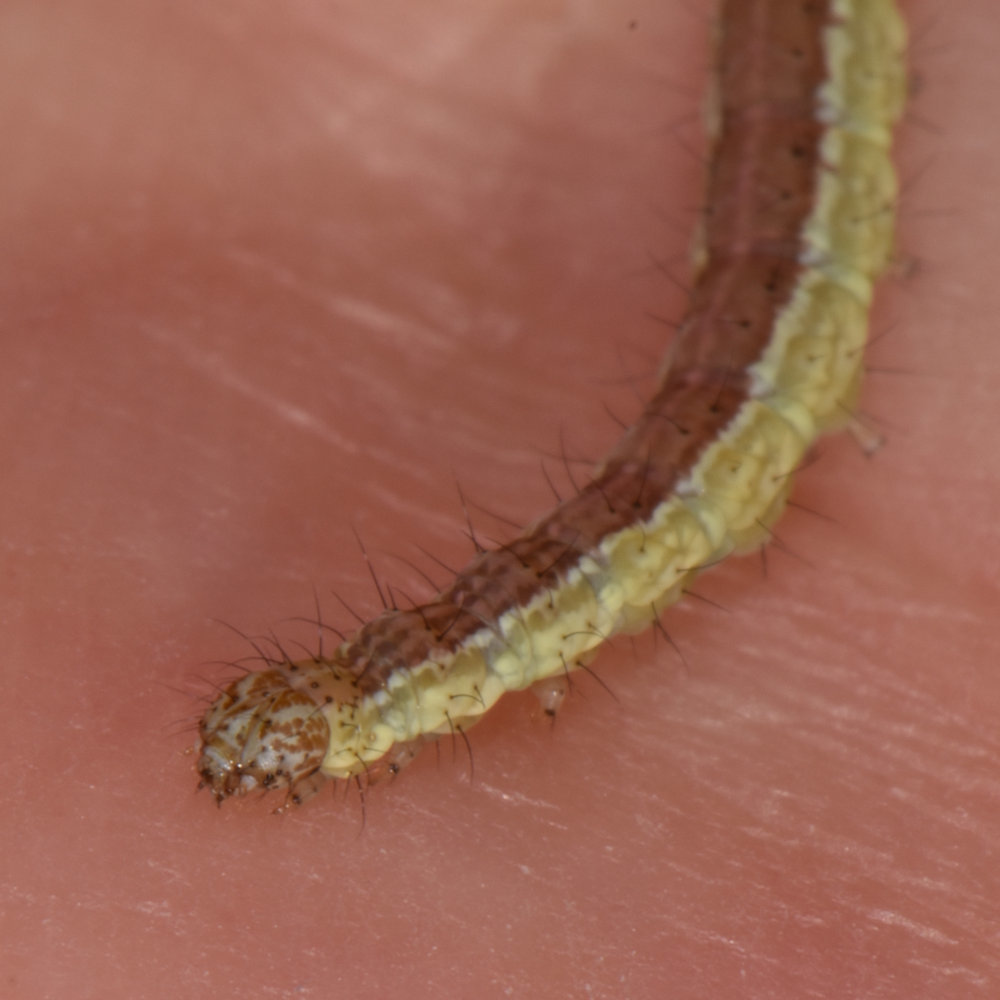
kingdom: Animalia
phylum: Arthropoda
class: Insecta
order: Lepidoptera
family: Ypsolophidae
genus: Ypsolopha
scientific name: Ypsolopha dentella
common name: Honeysuckle moth
